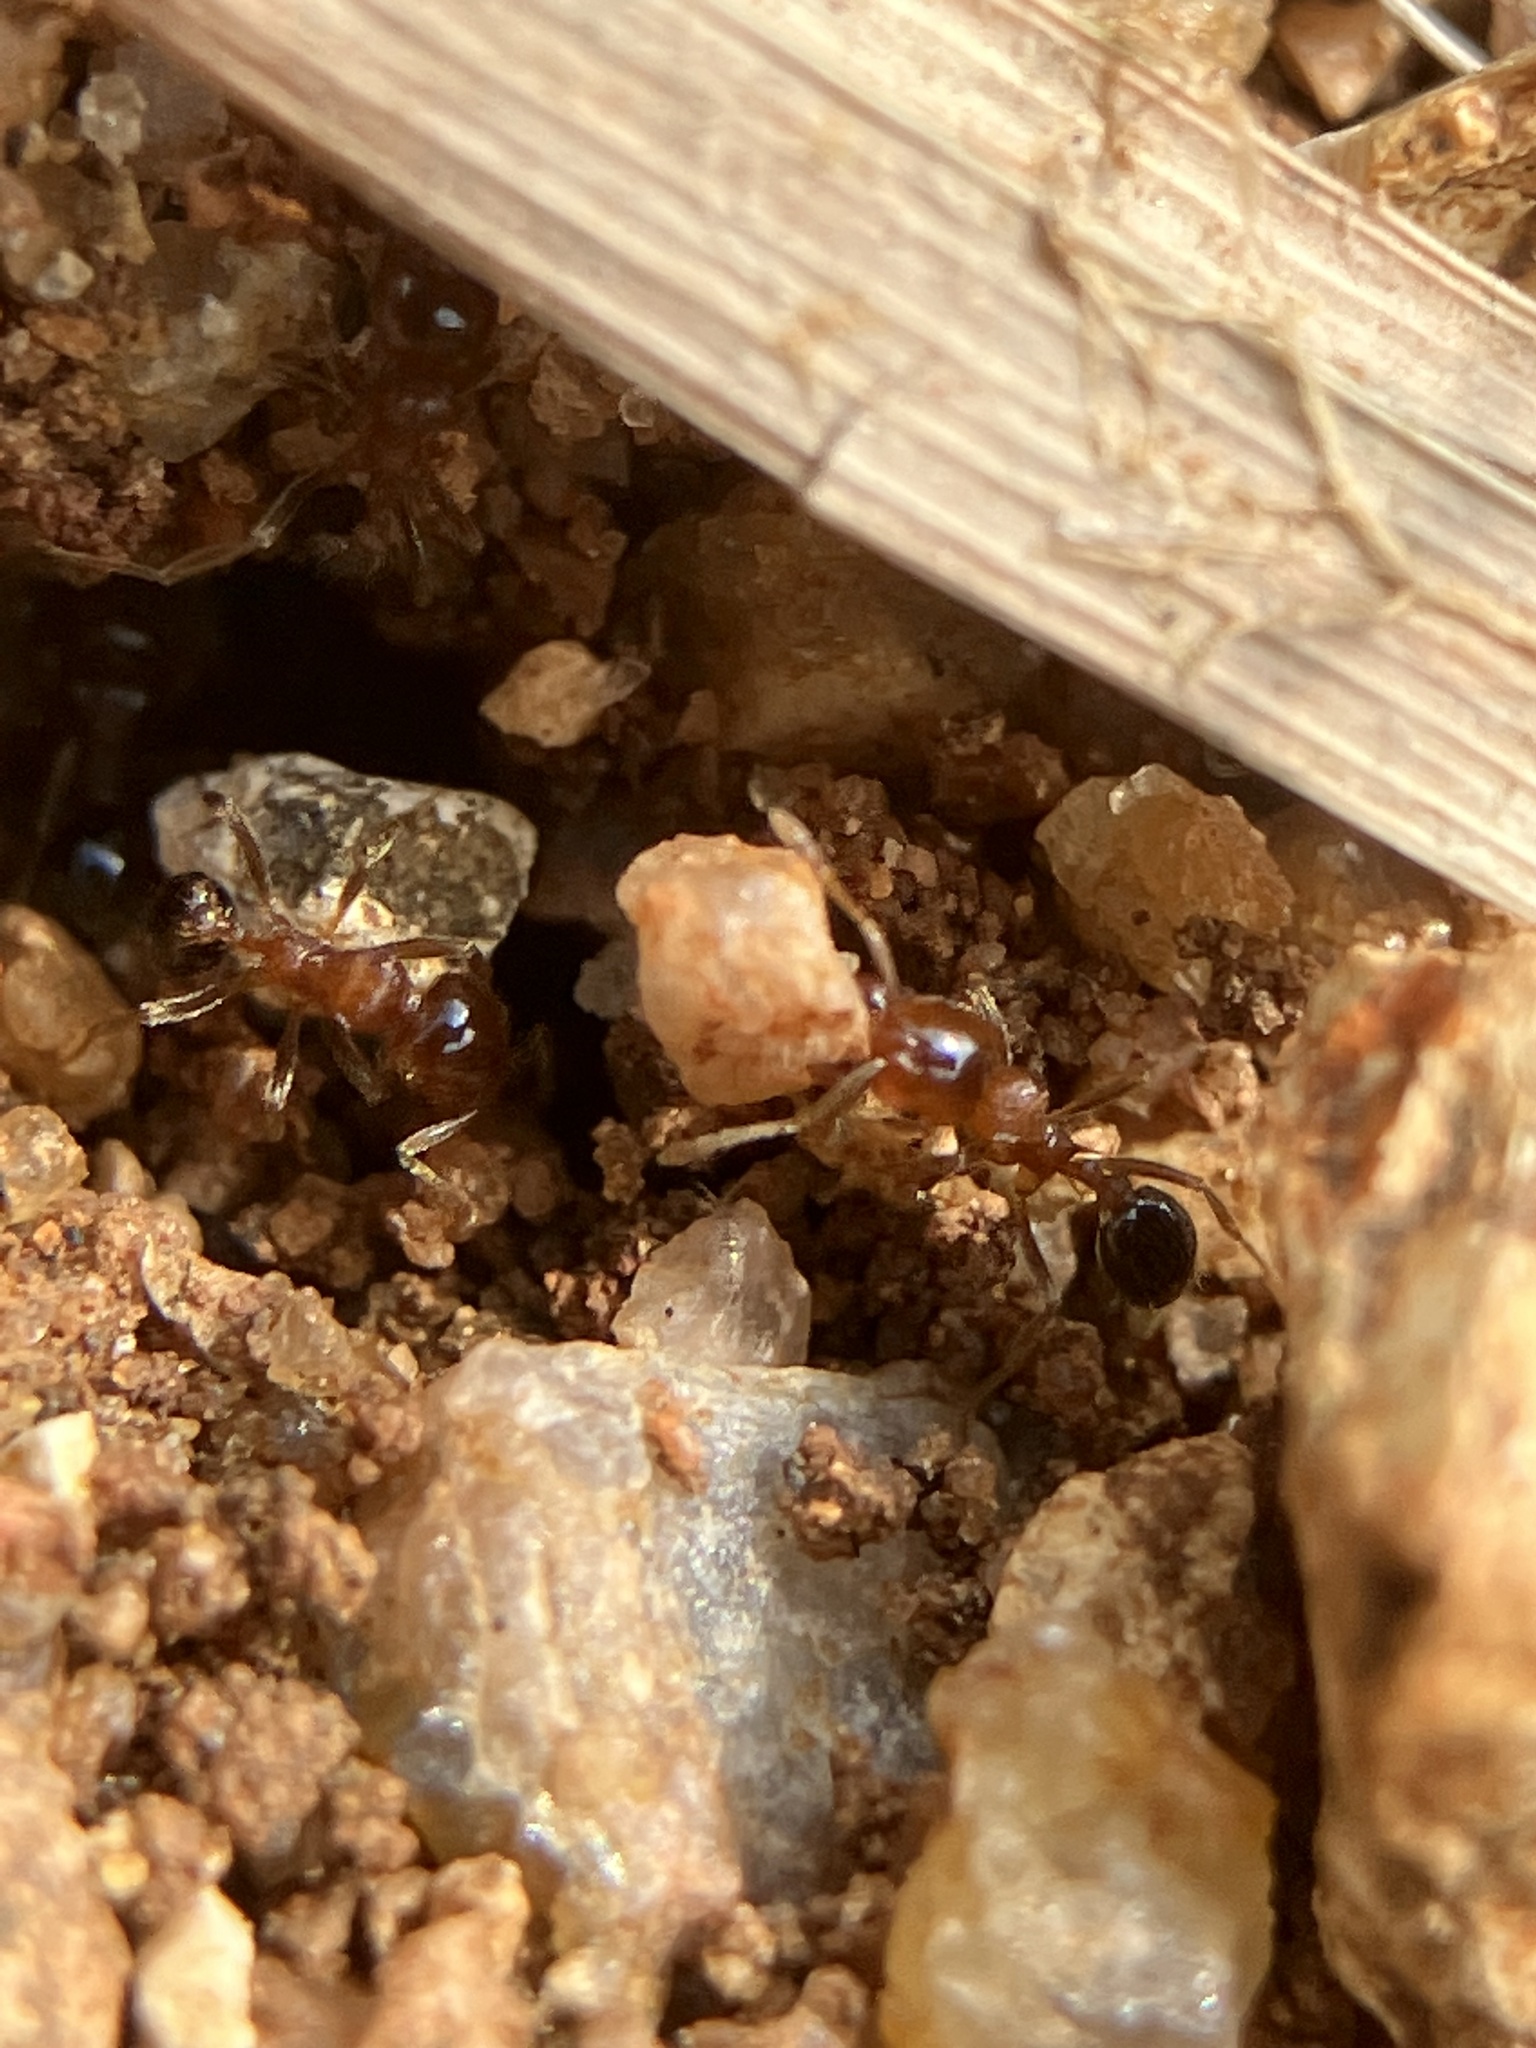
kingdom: Animalia
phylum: Arthropoda
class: Insecta
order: Hymenoptera
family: Formicidae
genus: Lophomyrmex
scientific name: Lophomyrmex quadrispinosus
